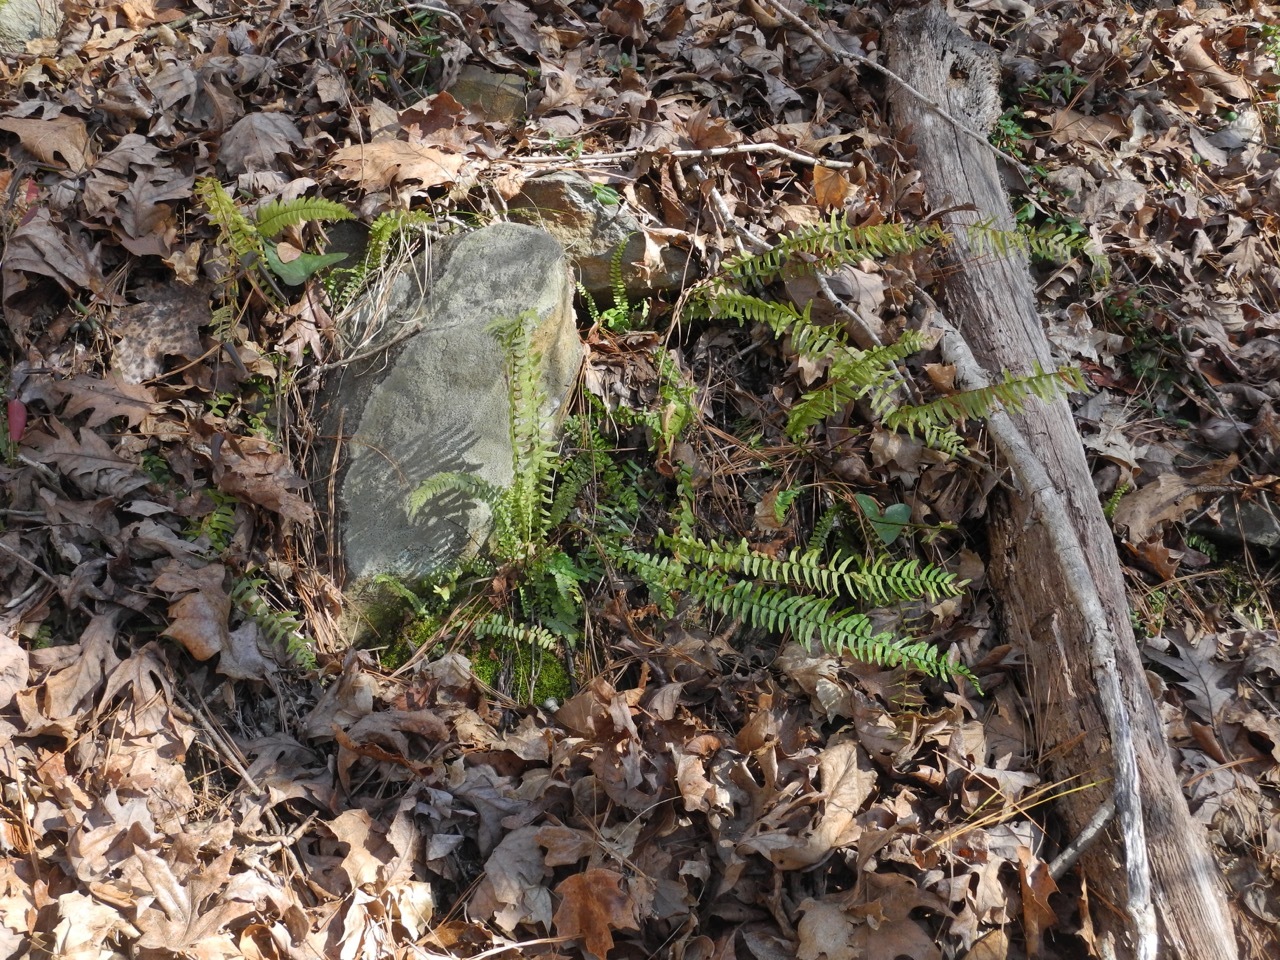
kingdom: Plantae
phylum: Tracheophyta
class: Polypodiopsida
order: Polypodiales
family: Aspleniaceae
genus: Asplenium
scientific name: Asplenium platyneuron
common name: Ebony spleenwort
